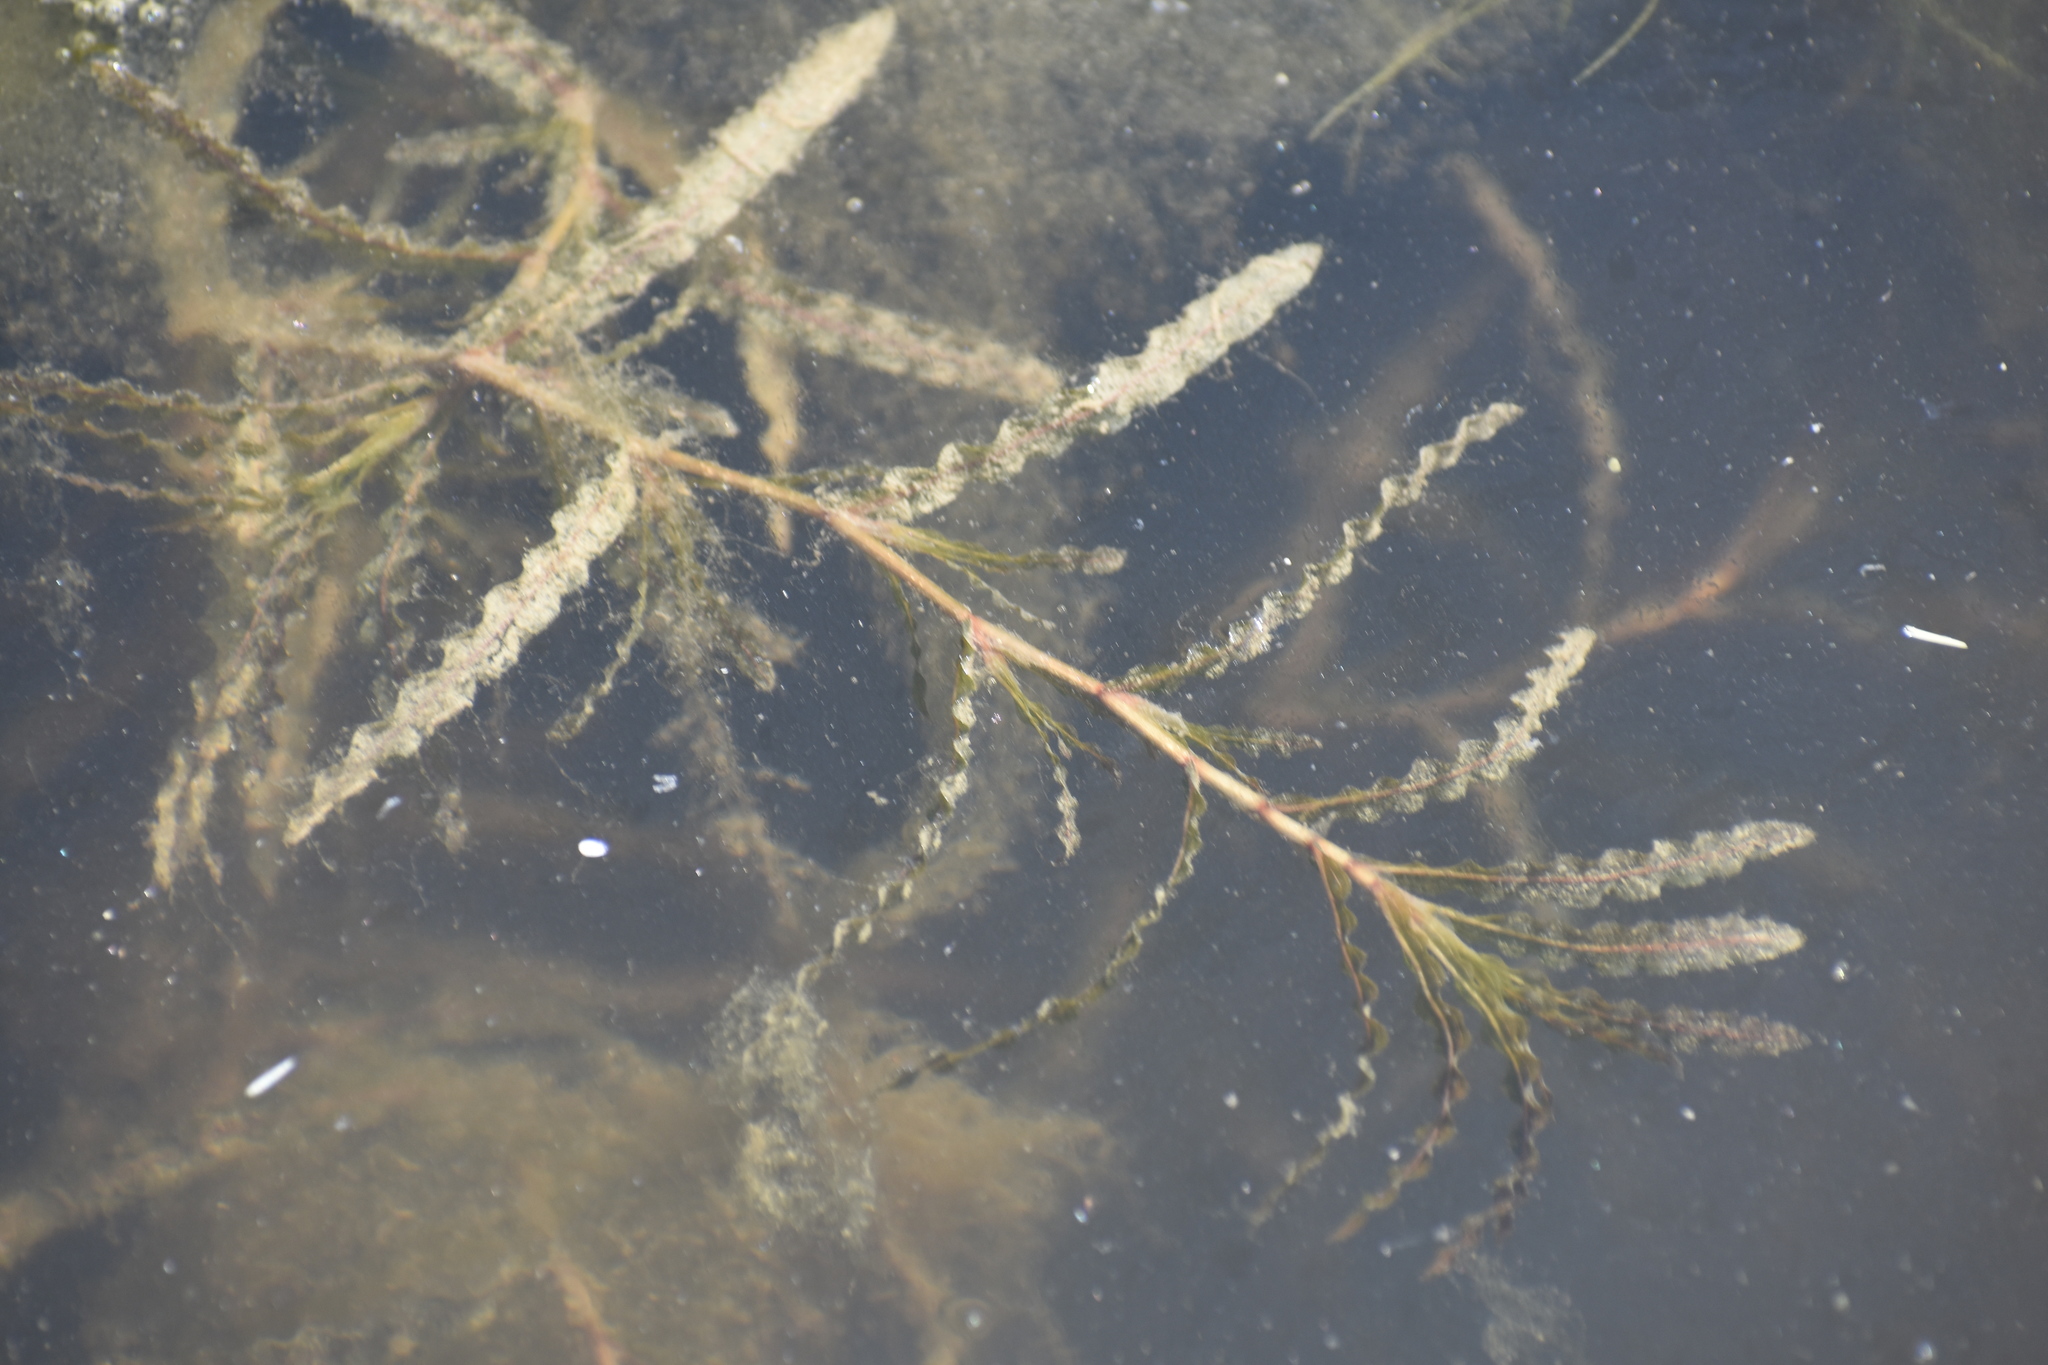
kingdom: Plantae
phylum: Tracheophyta
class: Liliopsida
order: Alismatales
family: Potamogetonaceae
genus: Potamogeton
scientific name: Potamogeton crispus
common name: Curled pondweed
